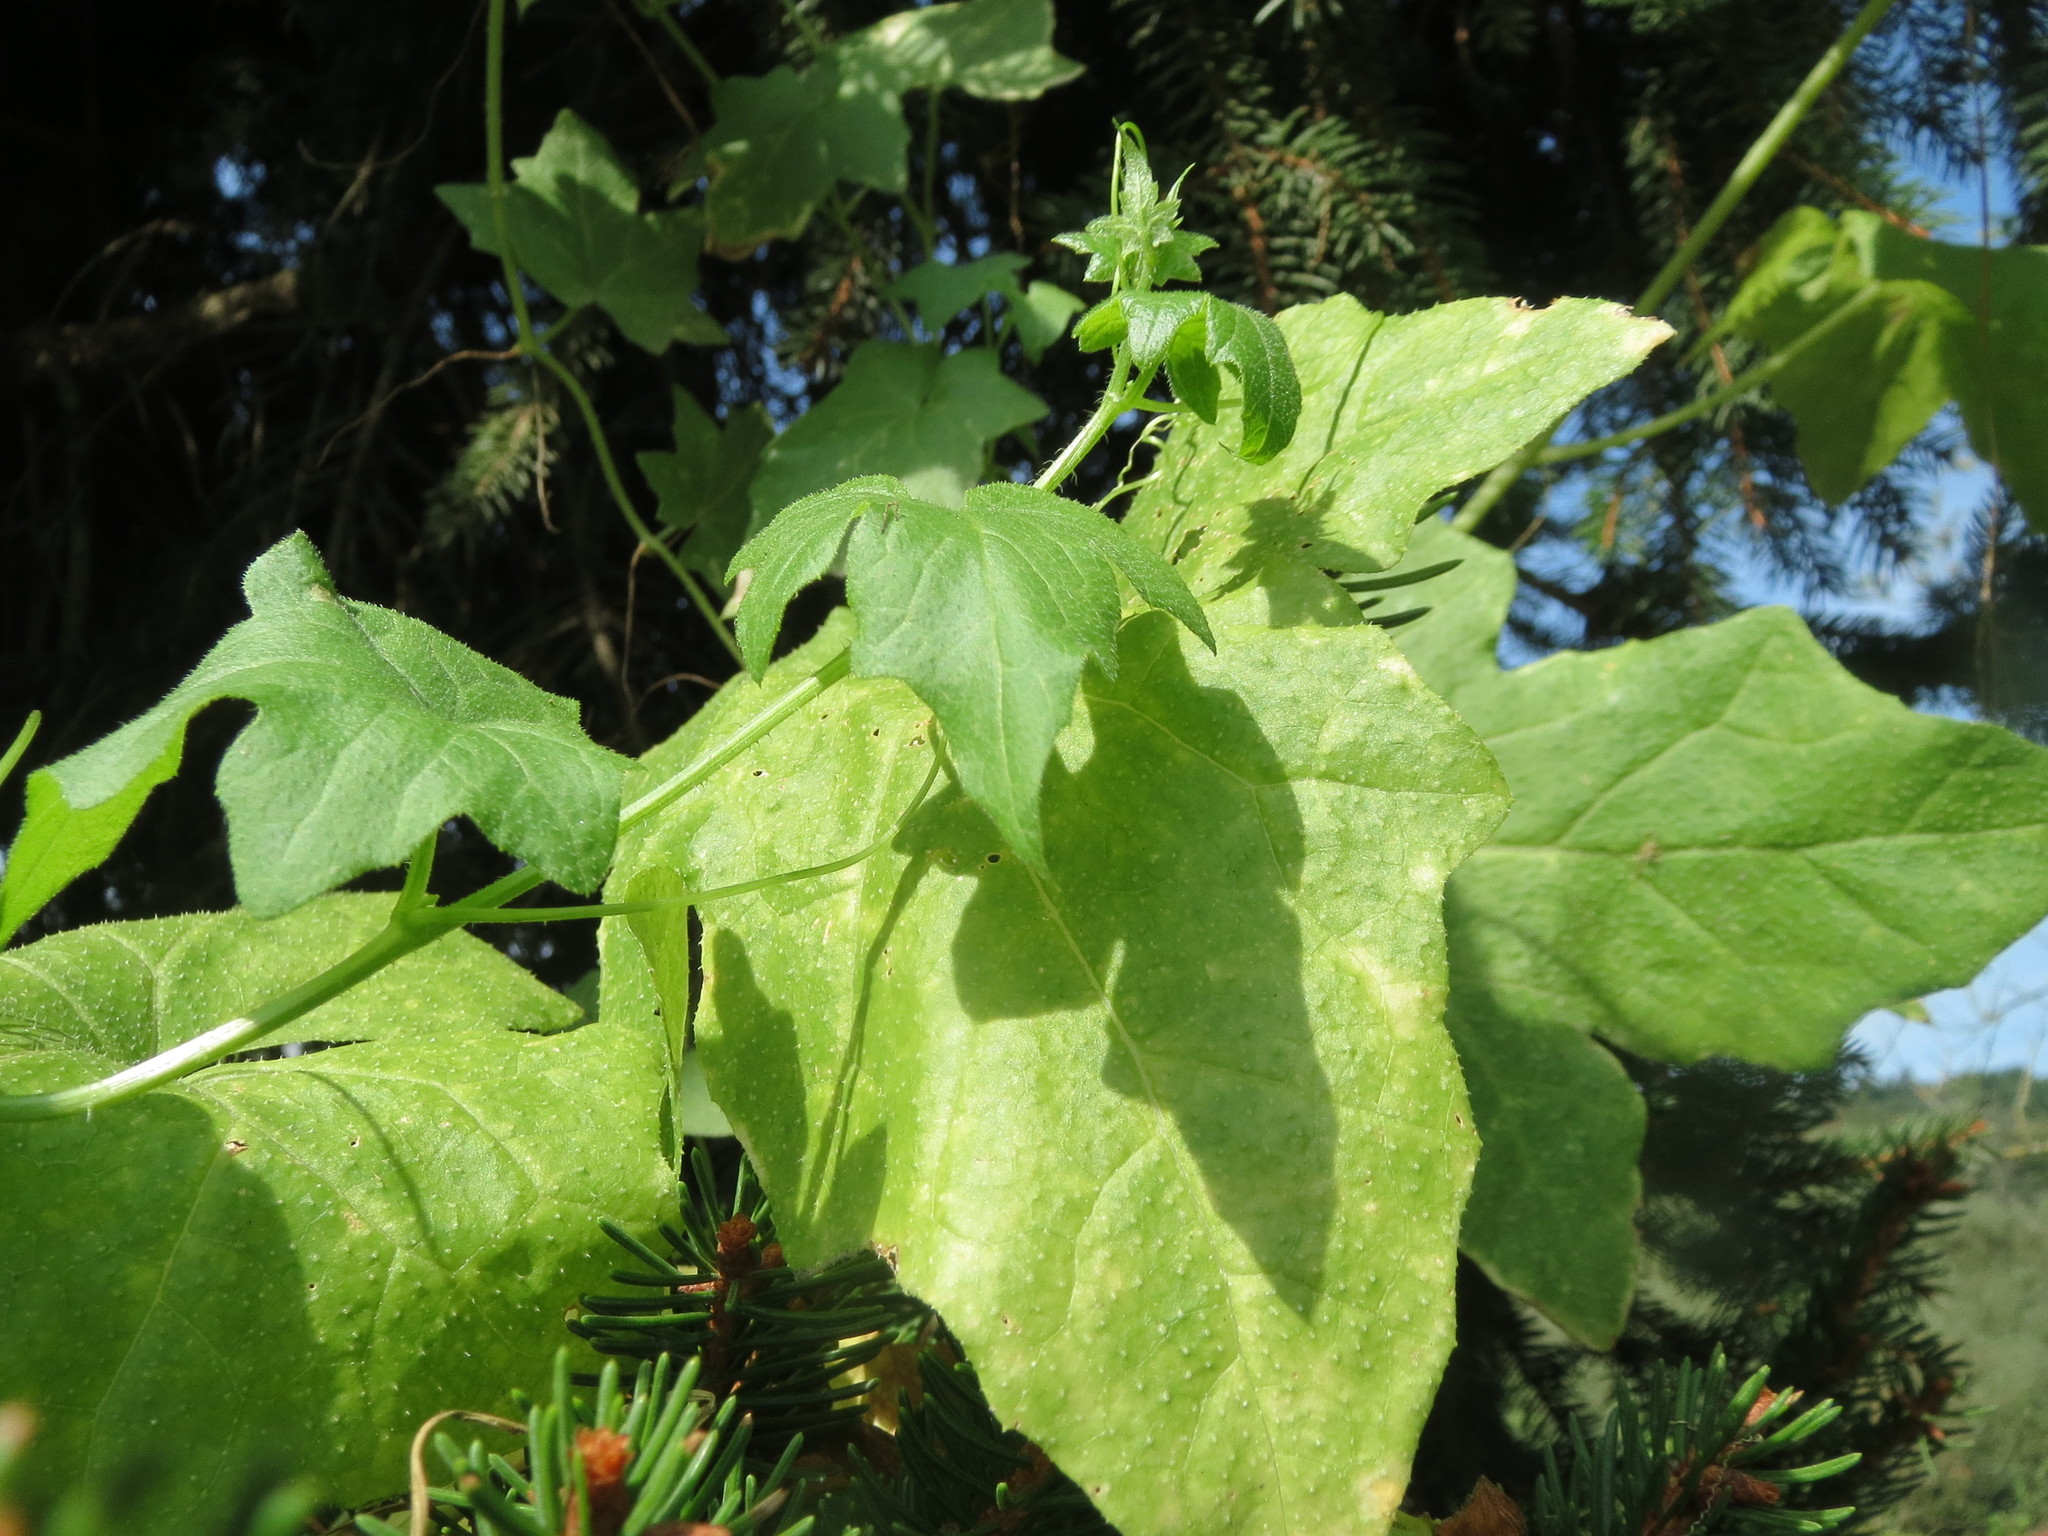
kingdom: Plantae
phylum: Tracheophyta
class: Magnoliopsida
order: Cucurbitales
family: Cucurbitaceae
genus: Bryonia
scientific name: Bryonia dioica
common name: White bryony
